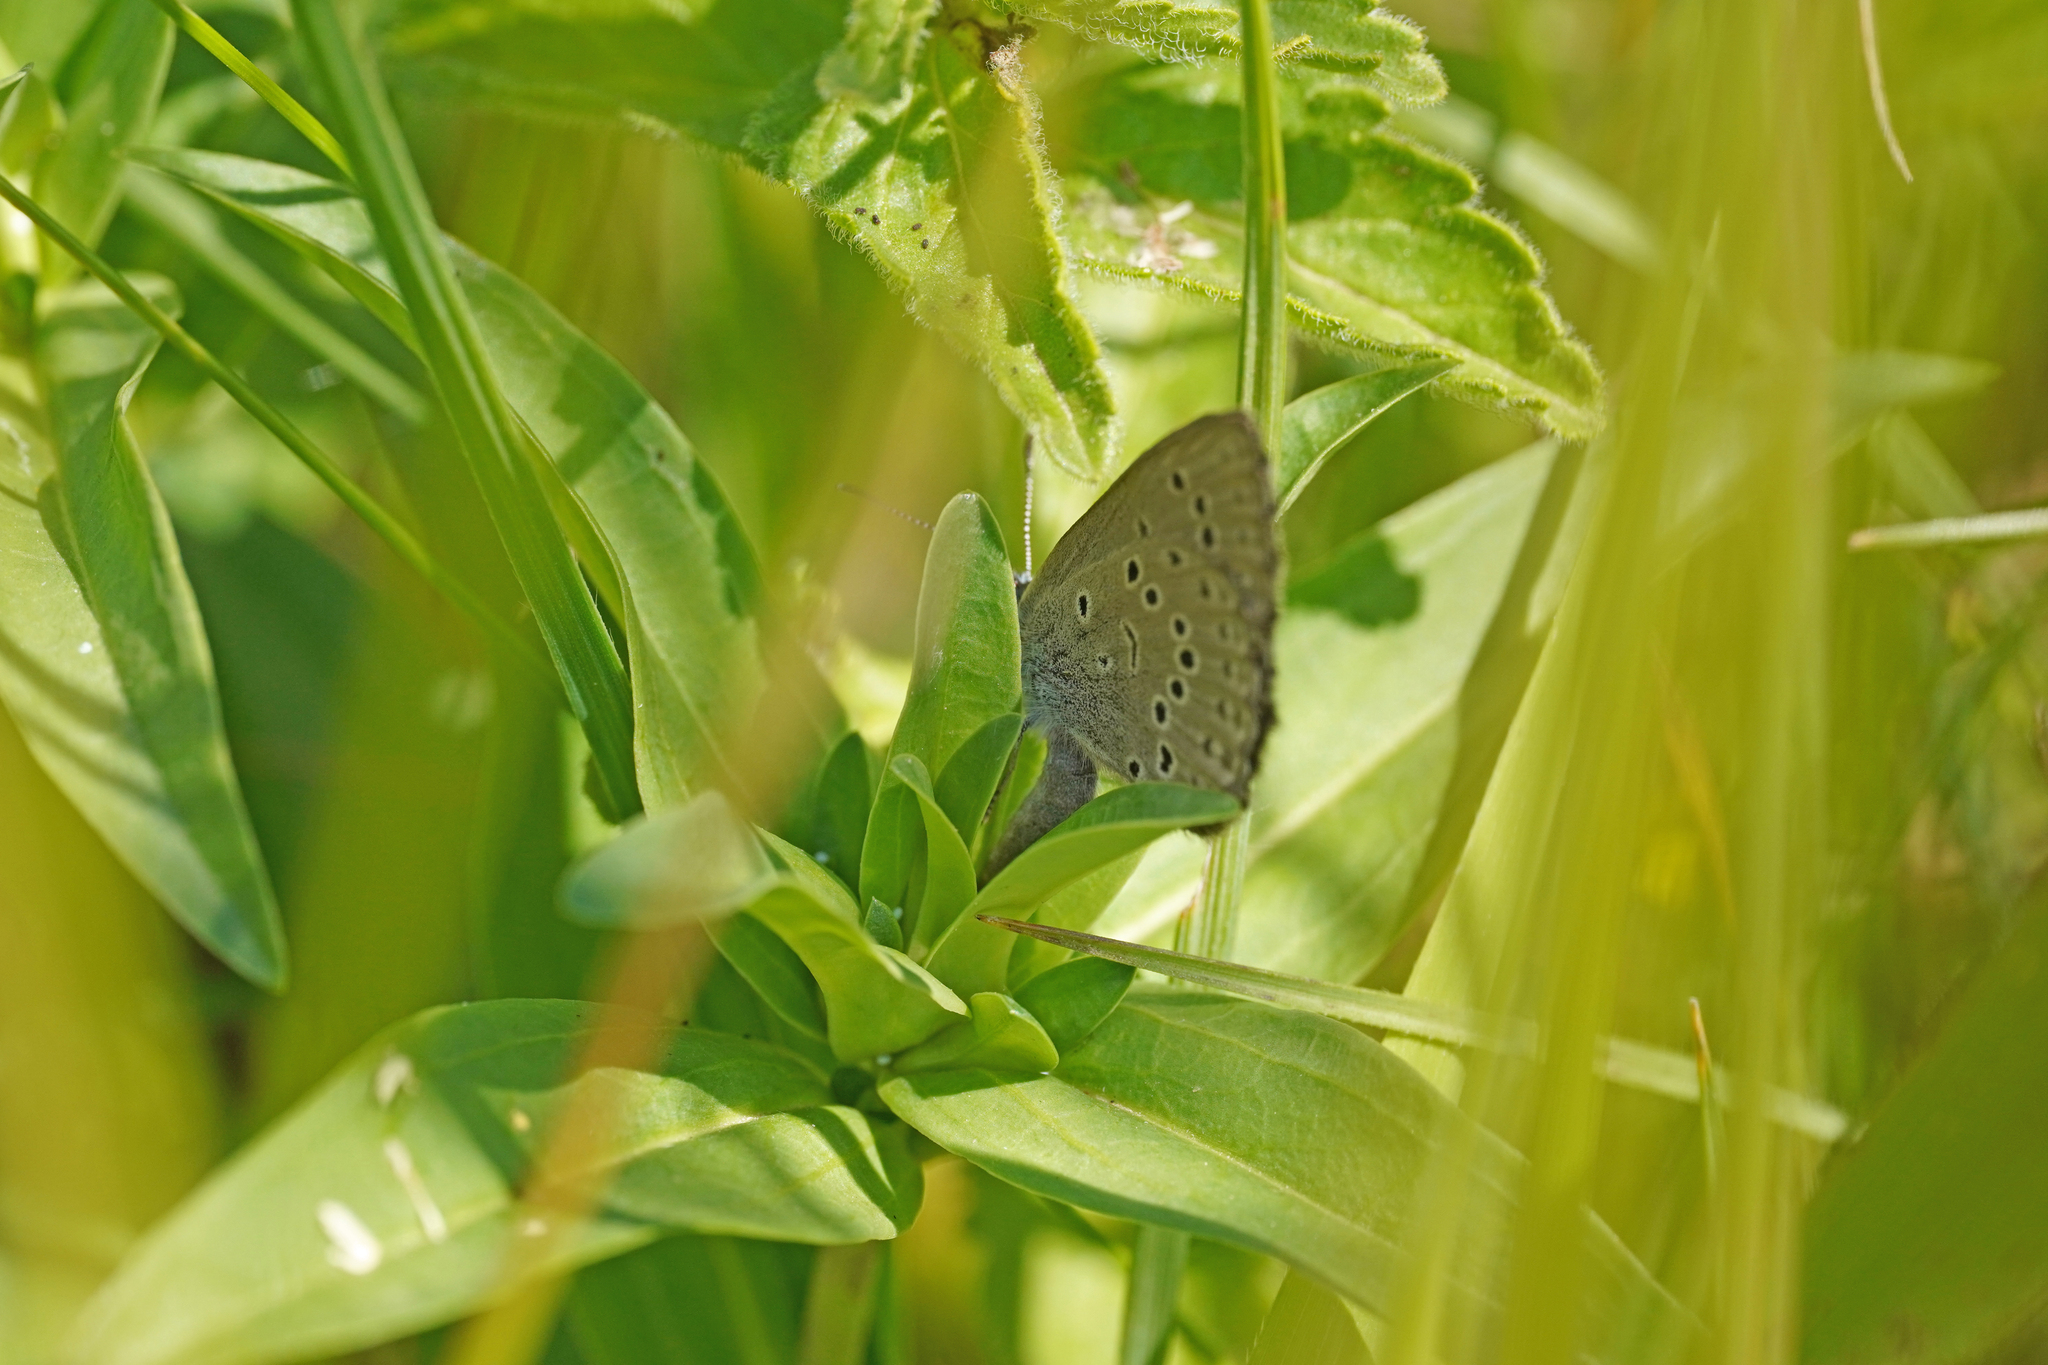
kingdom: Animalia
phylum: Arthropoda
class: Insecta
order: Lepidoptera
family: Lycaenidae
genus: Maculinea
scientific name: Maculinea alcon
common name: Alcon blue
